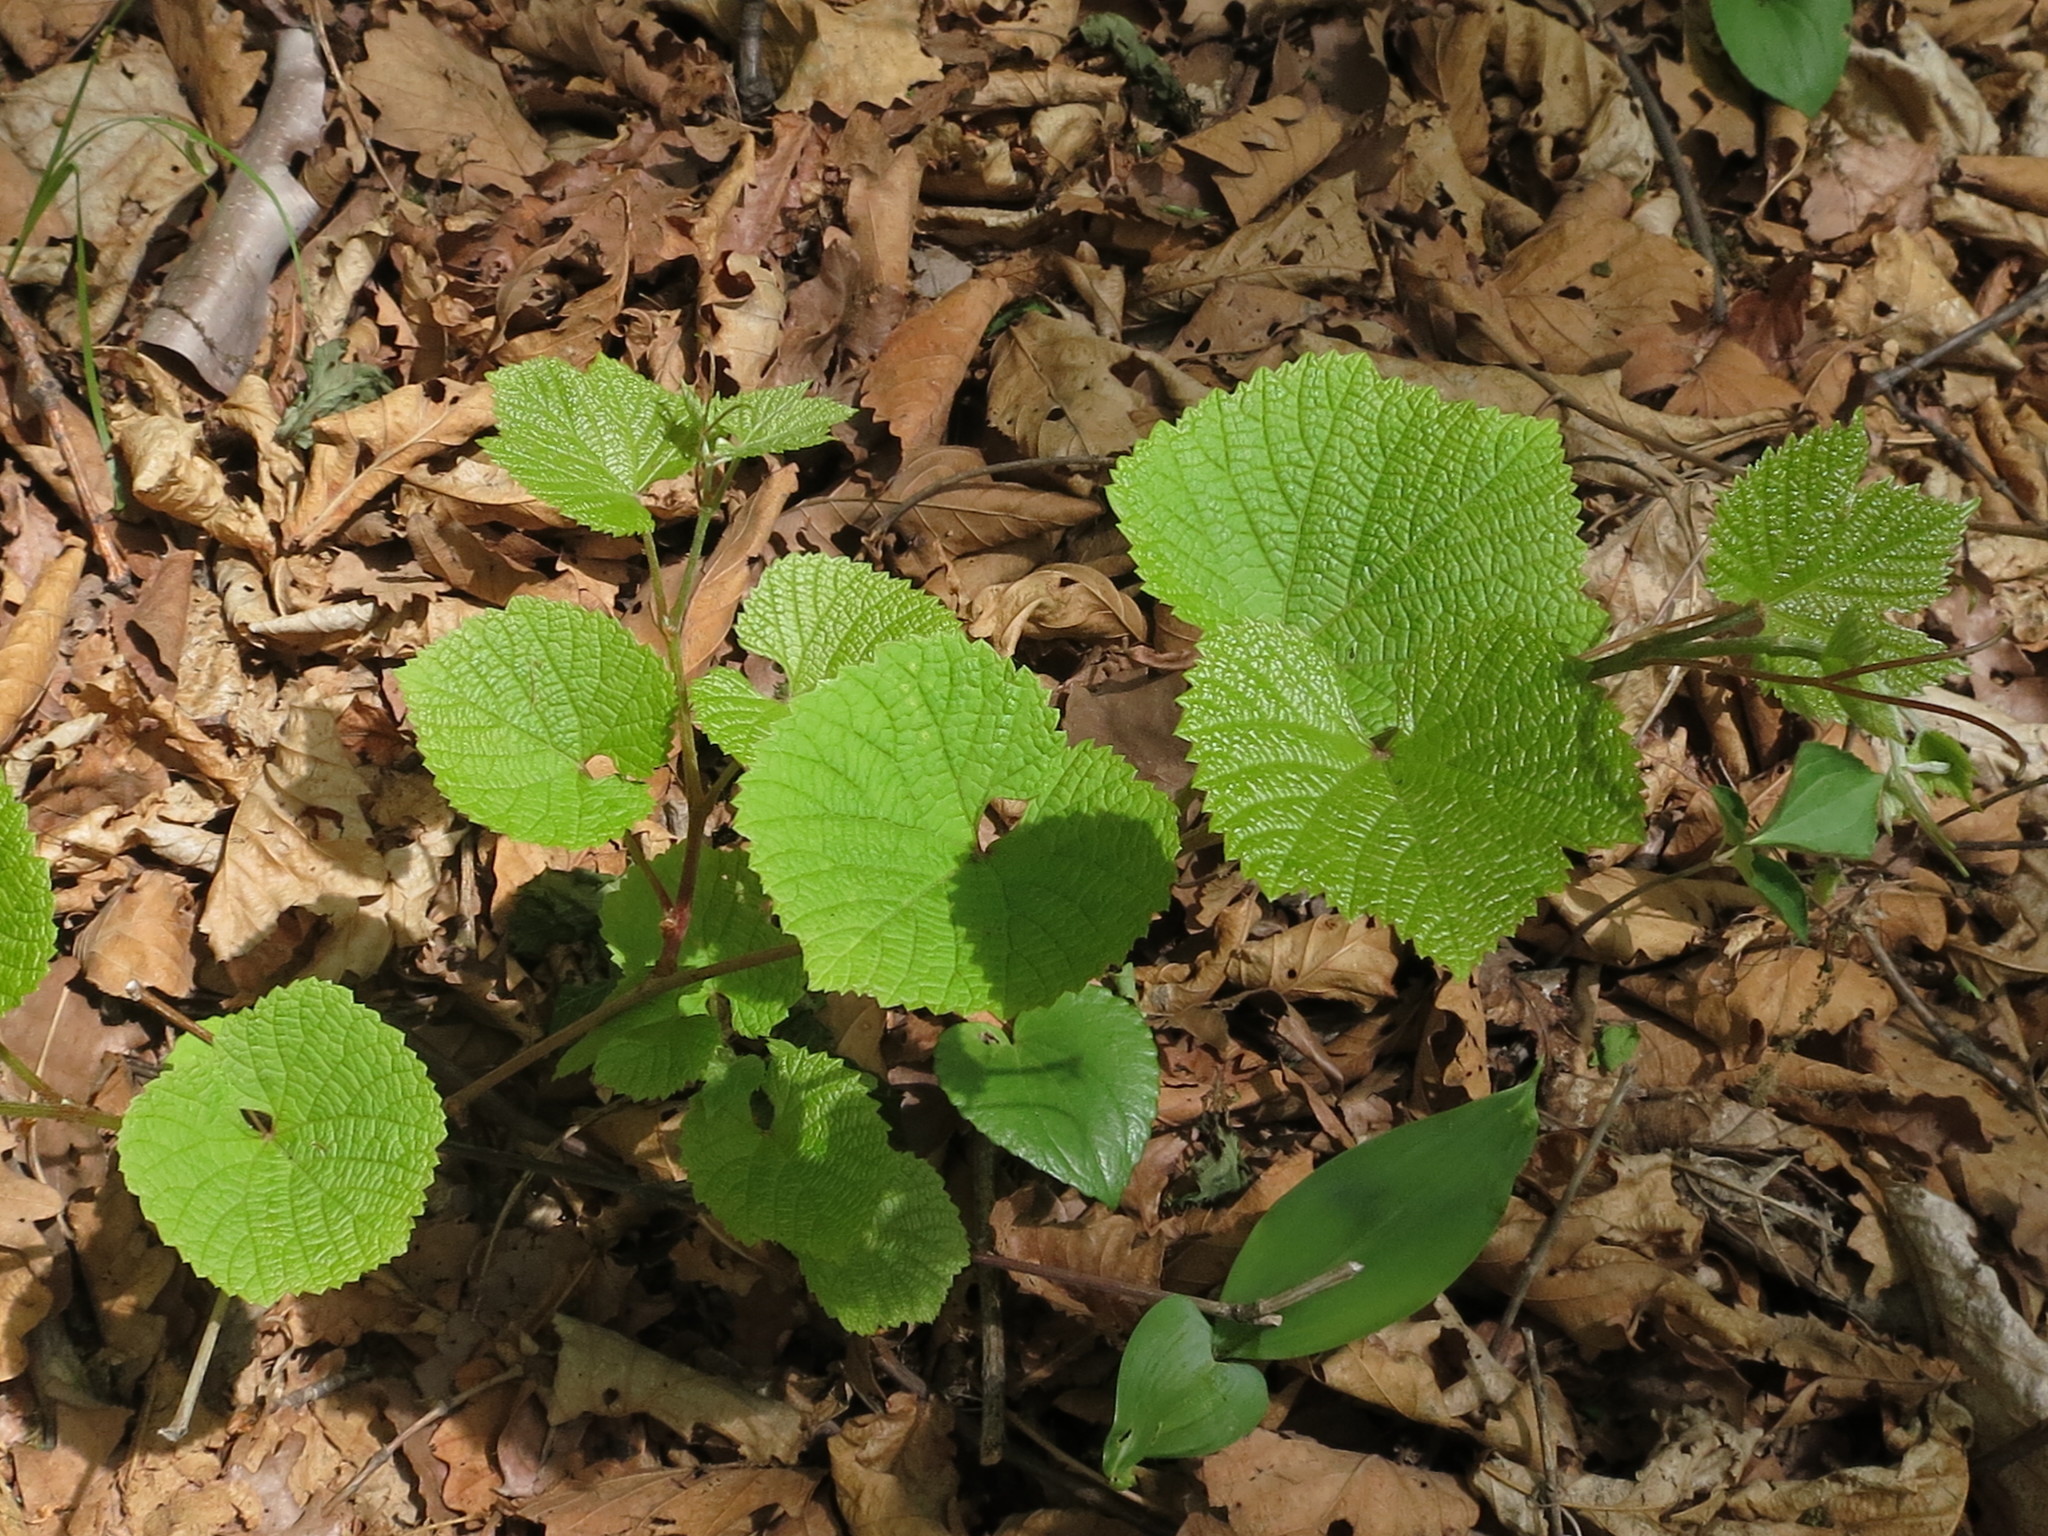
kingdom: Plantae
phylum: Tracheophyta
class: Magnoliopsida
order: Vitales
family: Vitaceae
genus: Vitis
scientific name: Vitis amurensis
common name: Amur grape
